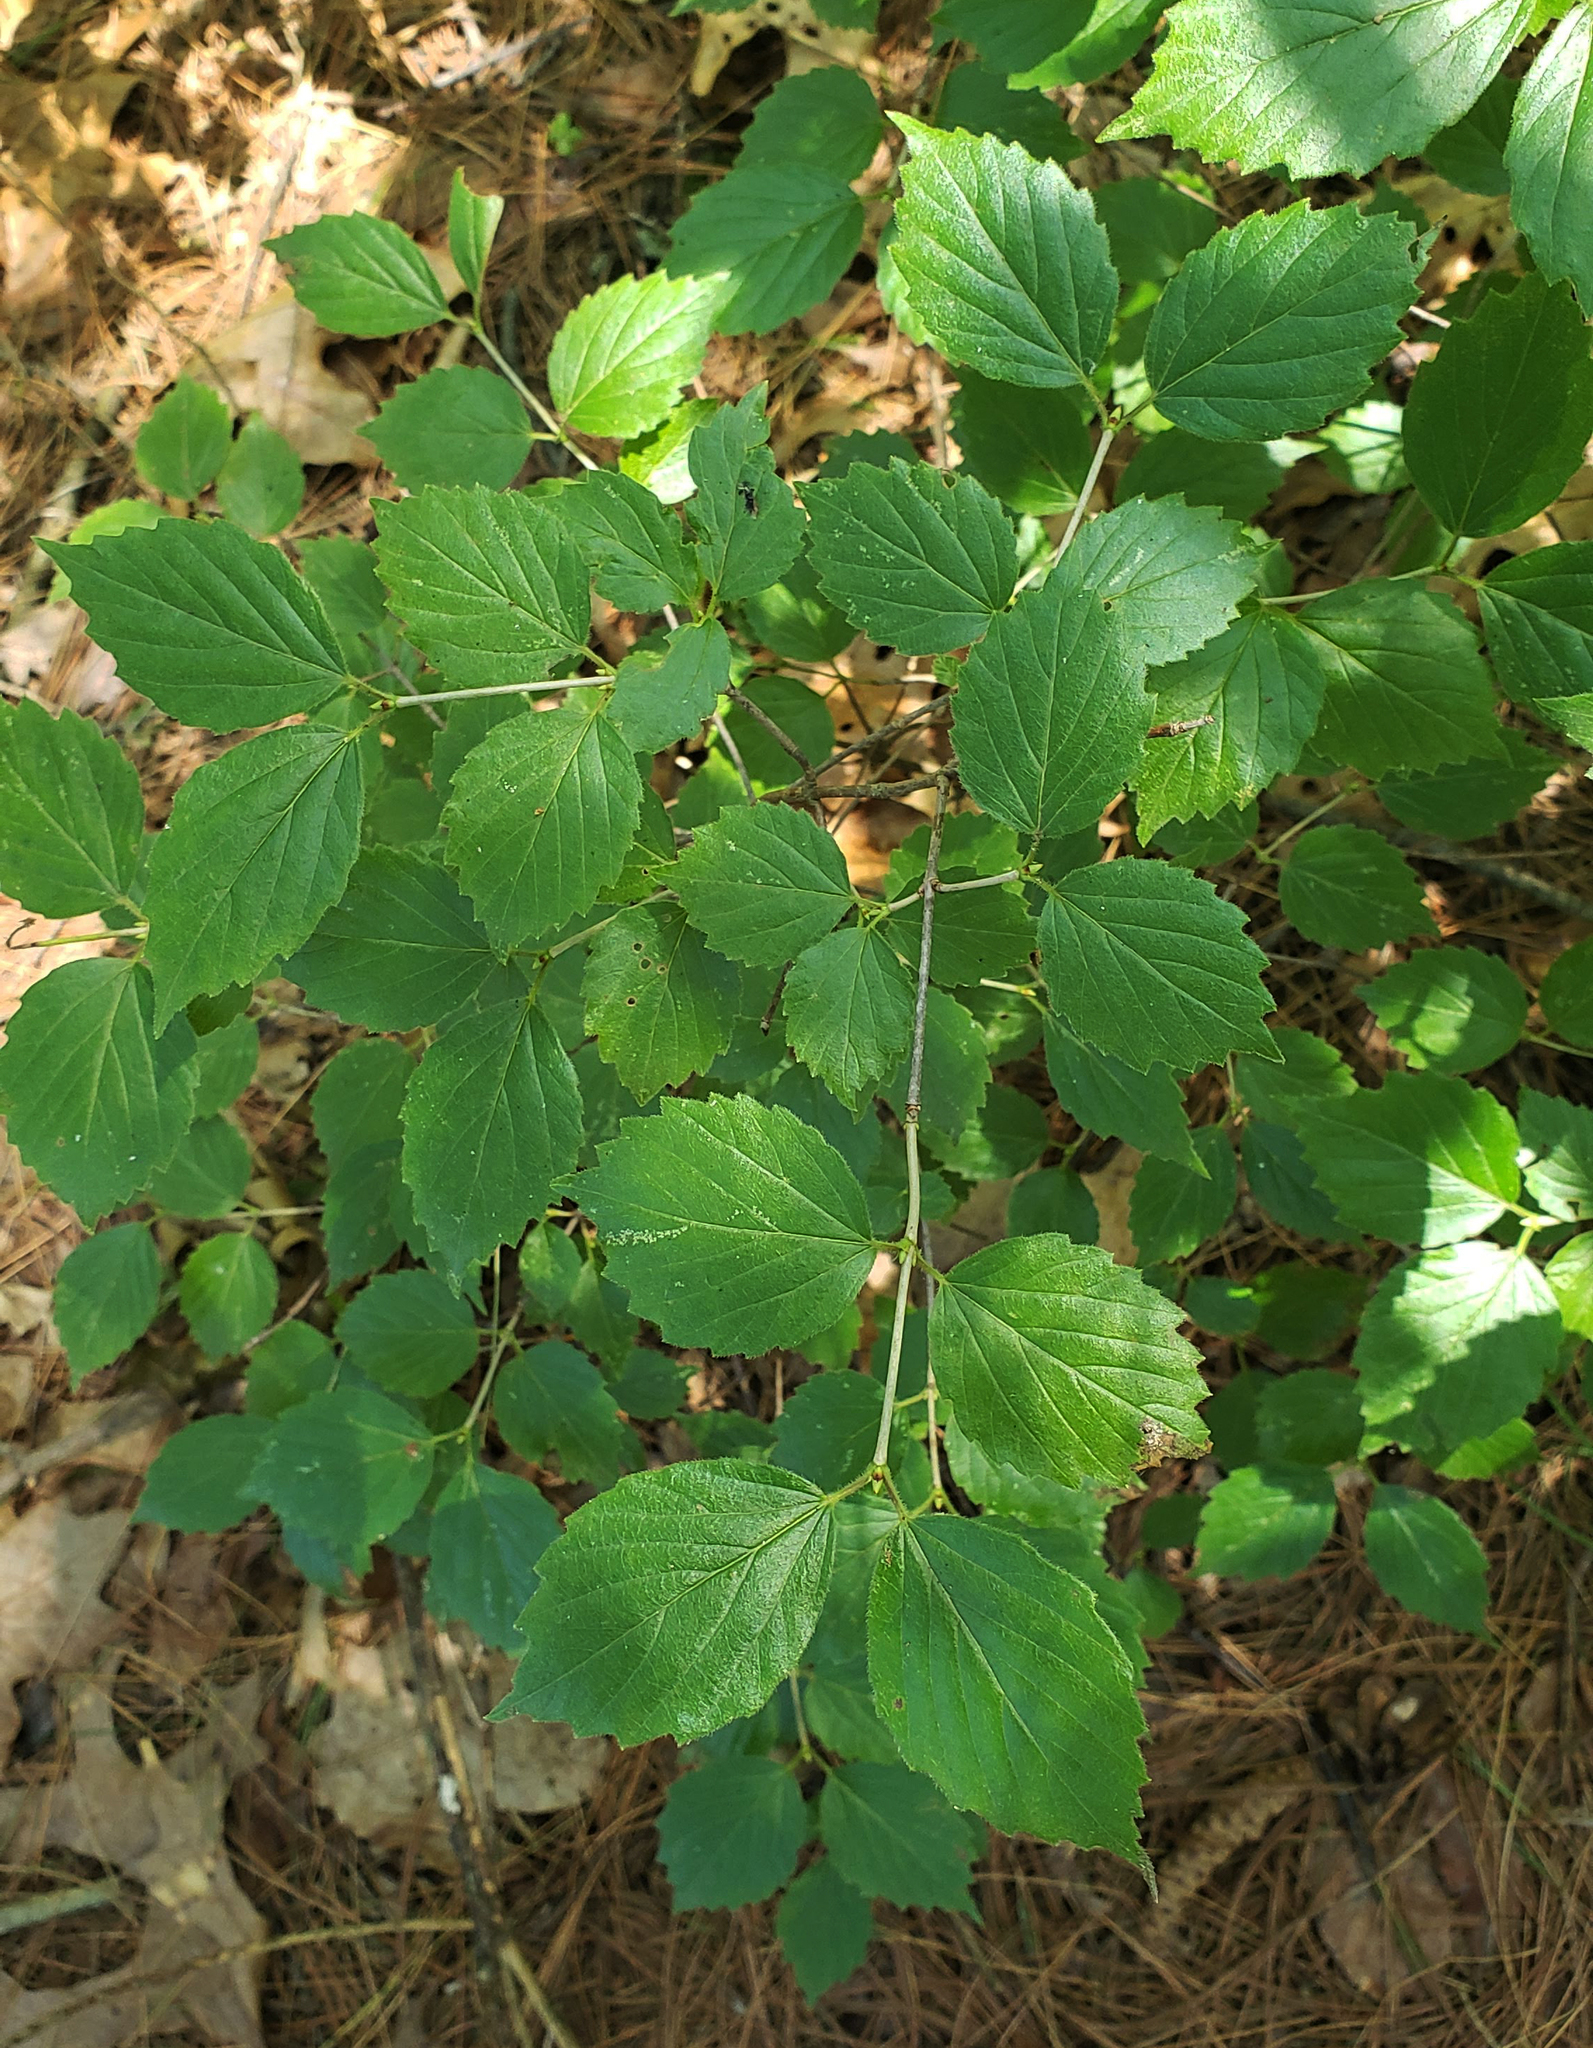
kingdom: Plantae
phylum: Tracheophyta
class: Magnoliopsida
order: Dipsacales
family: Viburnaceae
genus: Viburnum
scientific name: Viburnum rafinesqueanum
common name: Downy arrow-wood
